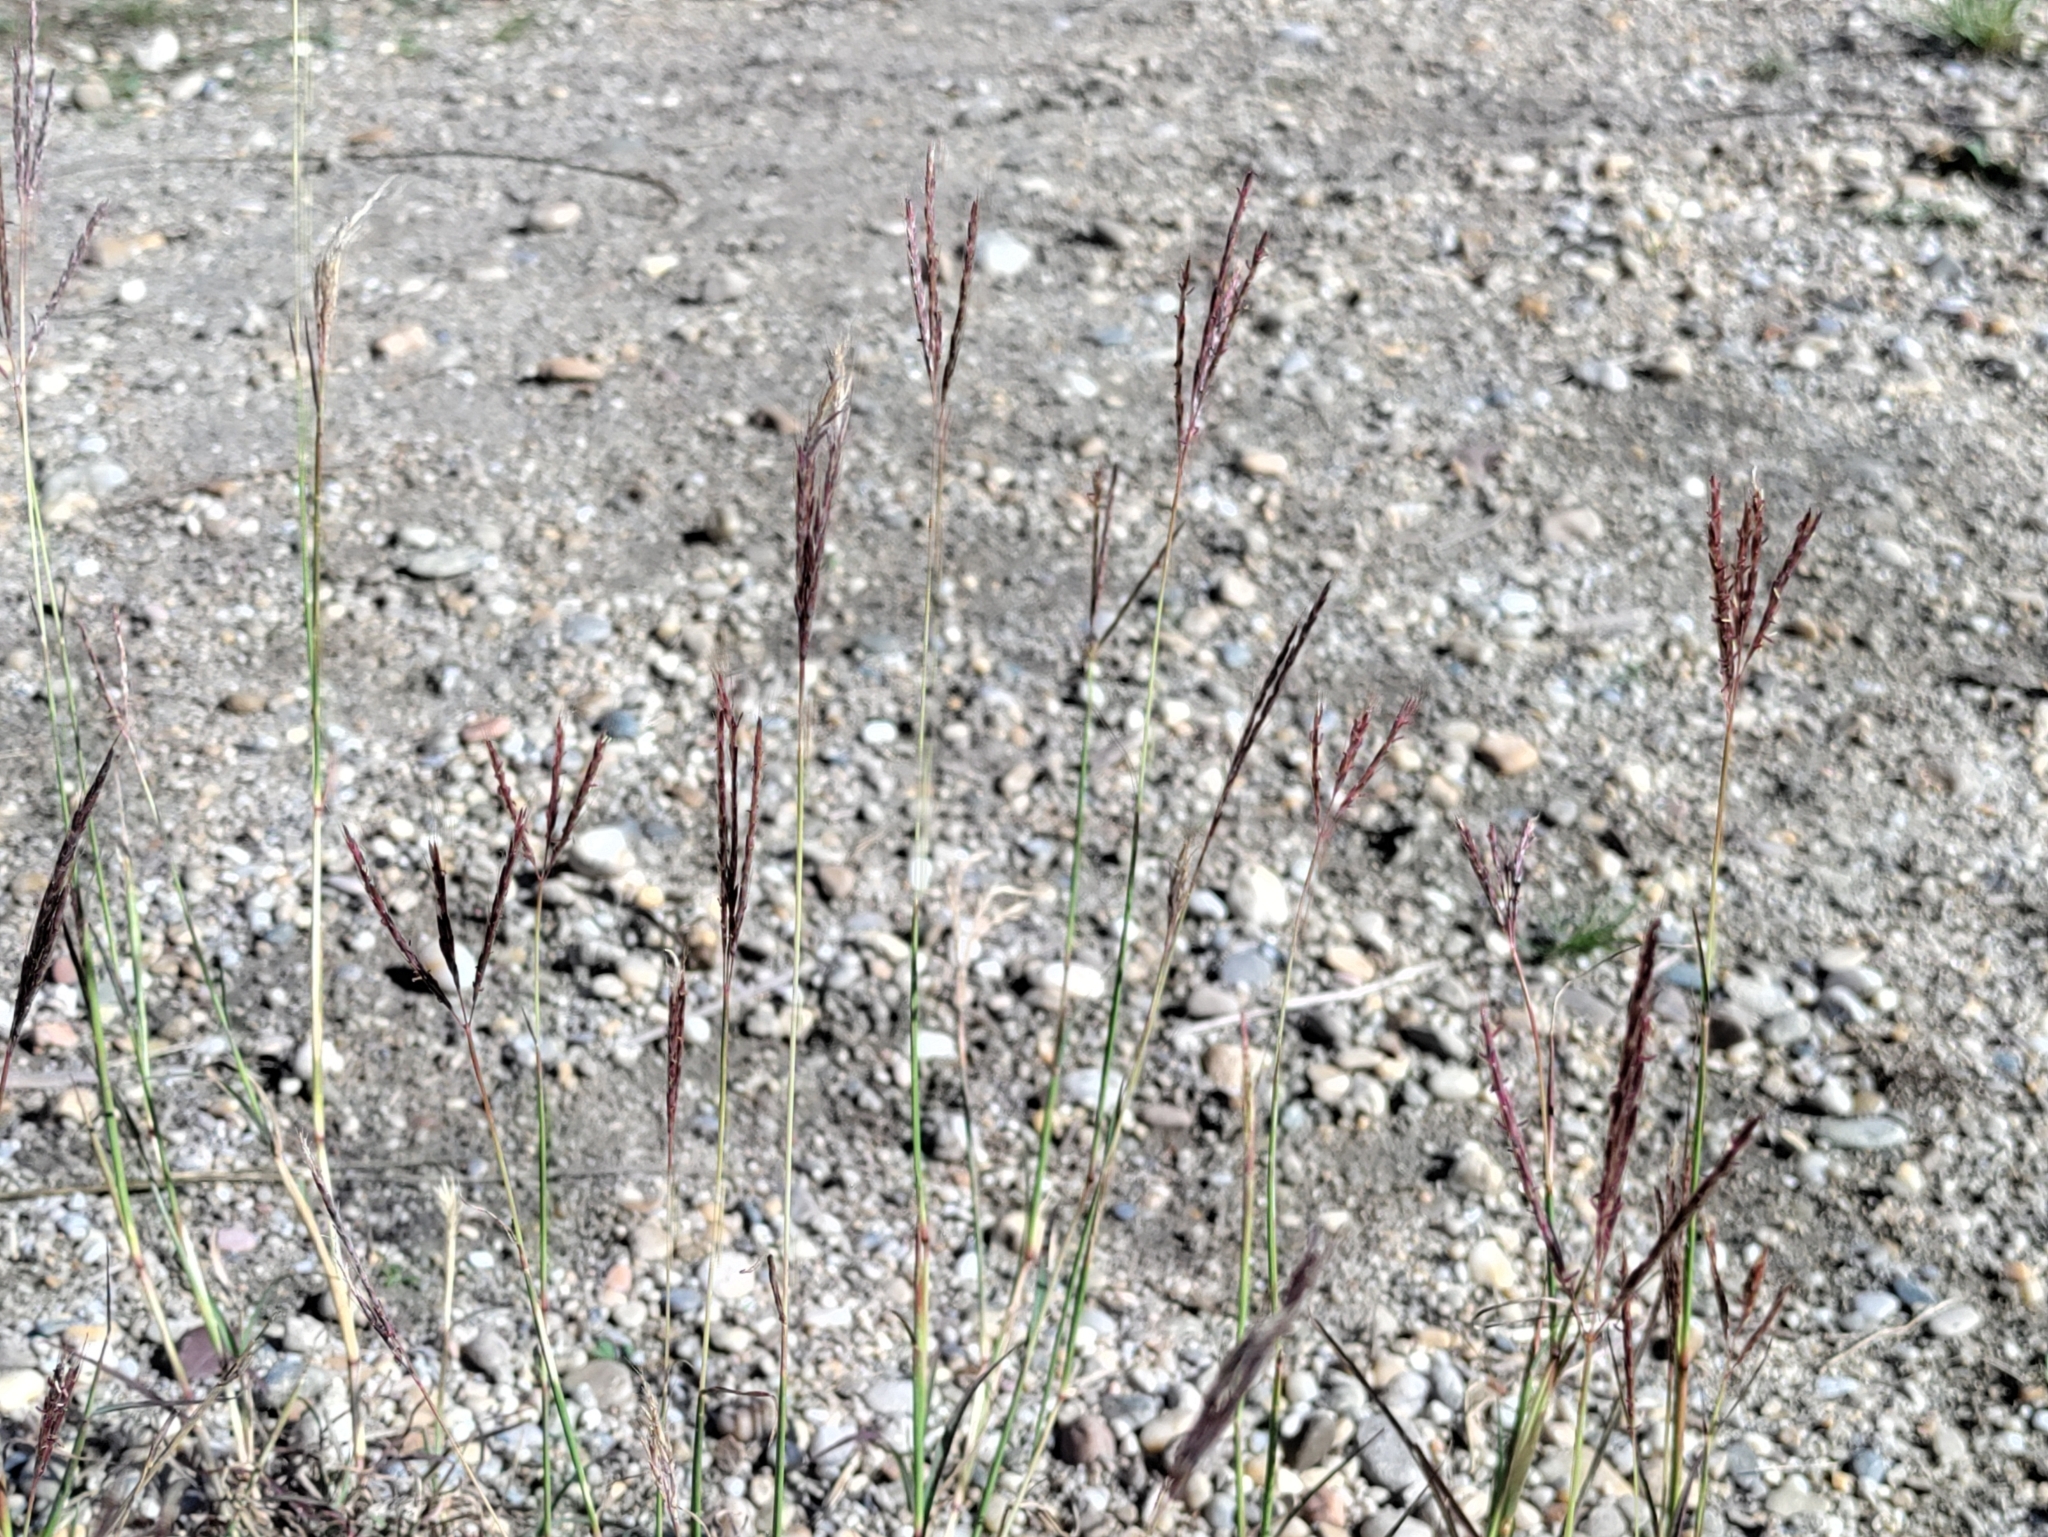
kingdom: Plantae
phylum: Tracheophyta
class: Liliopsida
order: Poales
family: Poaceae
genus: Bothriochloa
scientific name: Bothriochloa ischaemum
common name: Yellow bluestem
